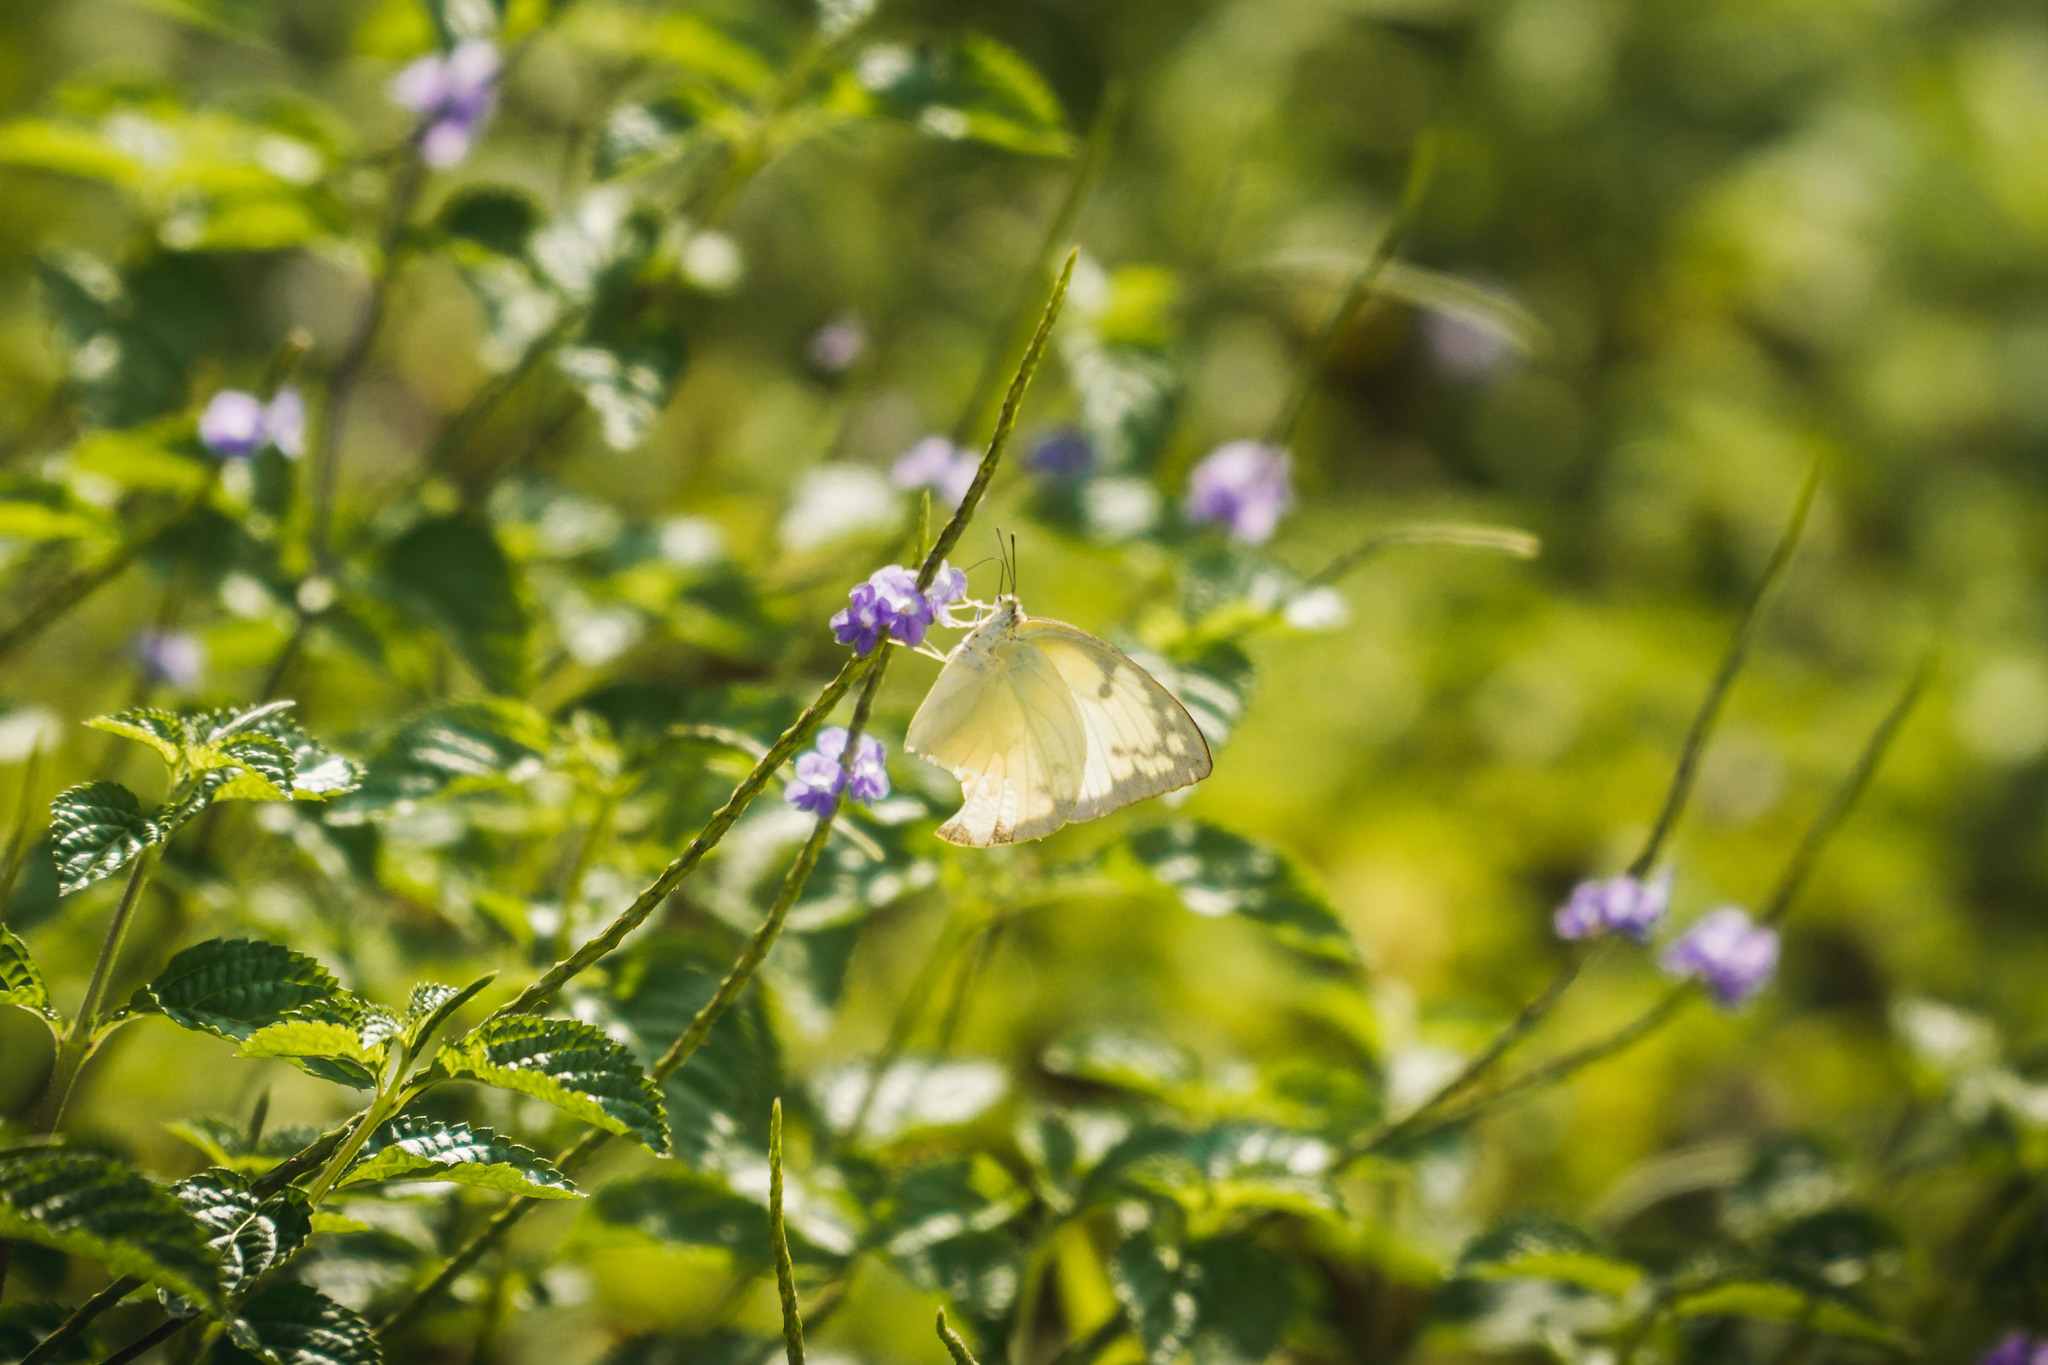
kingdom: Animalia
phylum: Arthropoda
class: Insecta
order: Lepidoptera
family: Pieridae
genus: Catopsilia
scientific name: Catopsilia pomona
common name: Common emigrant
